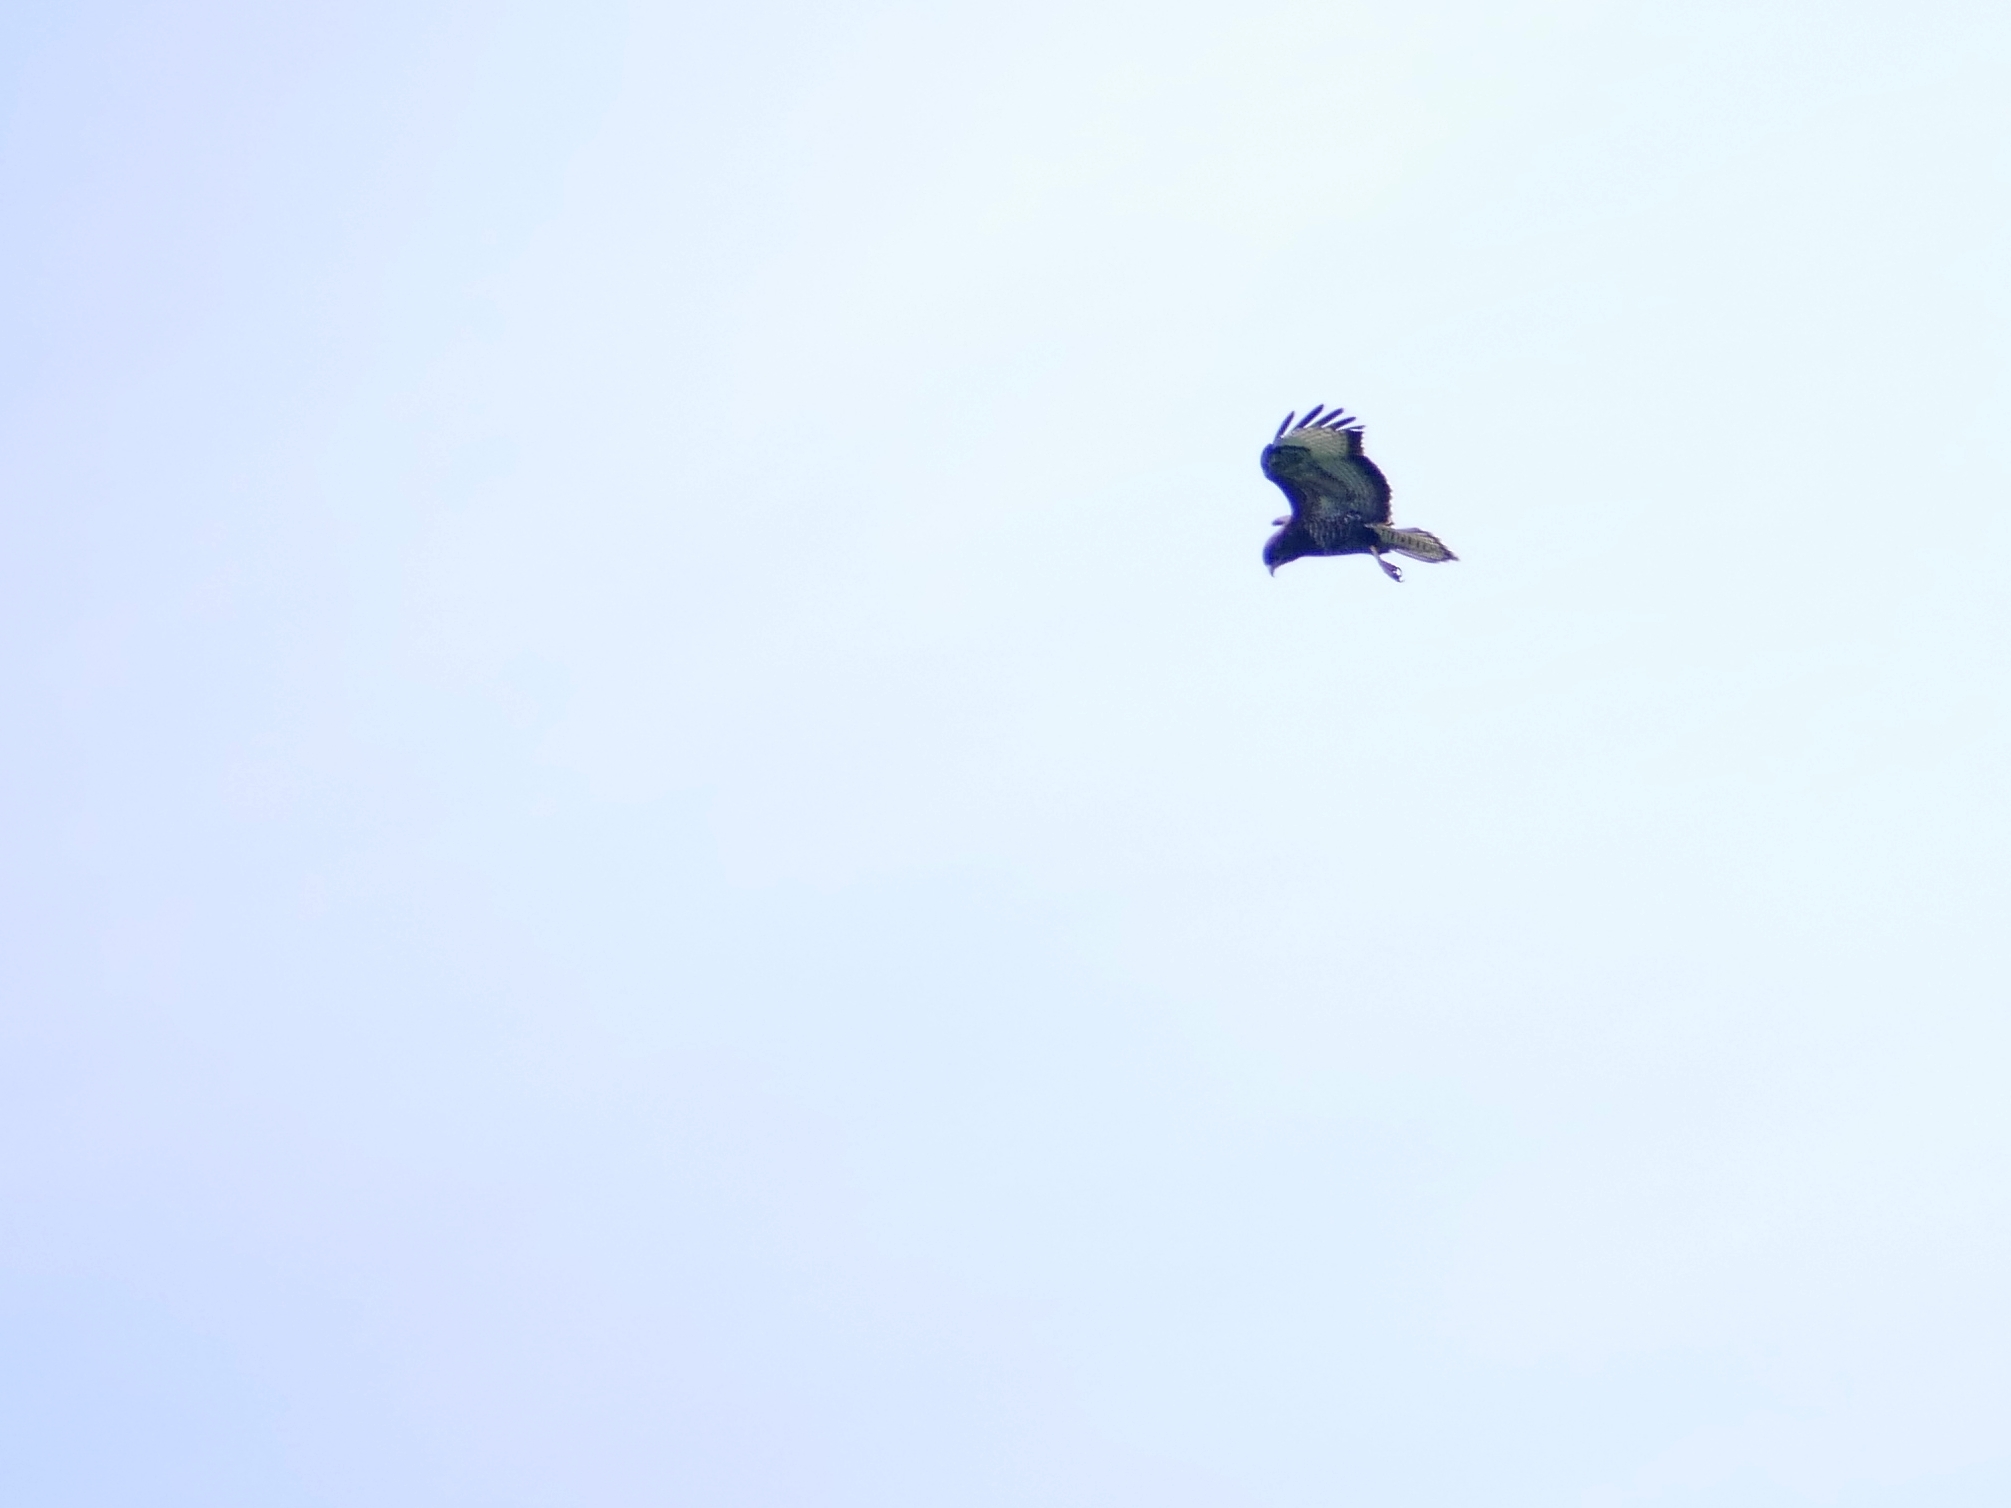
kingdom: Animalia
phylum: Chordata
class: Aves
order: Accipitriformes
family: Accipitridae
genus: Buteo
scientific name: Buteo buteo
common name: Common buzzard
